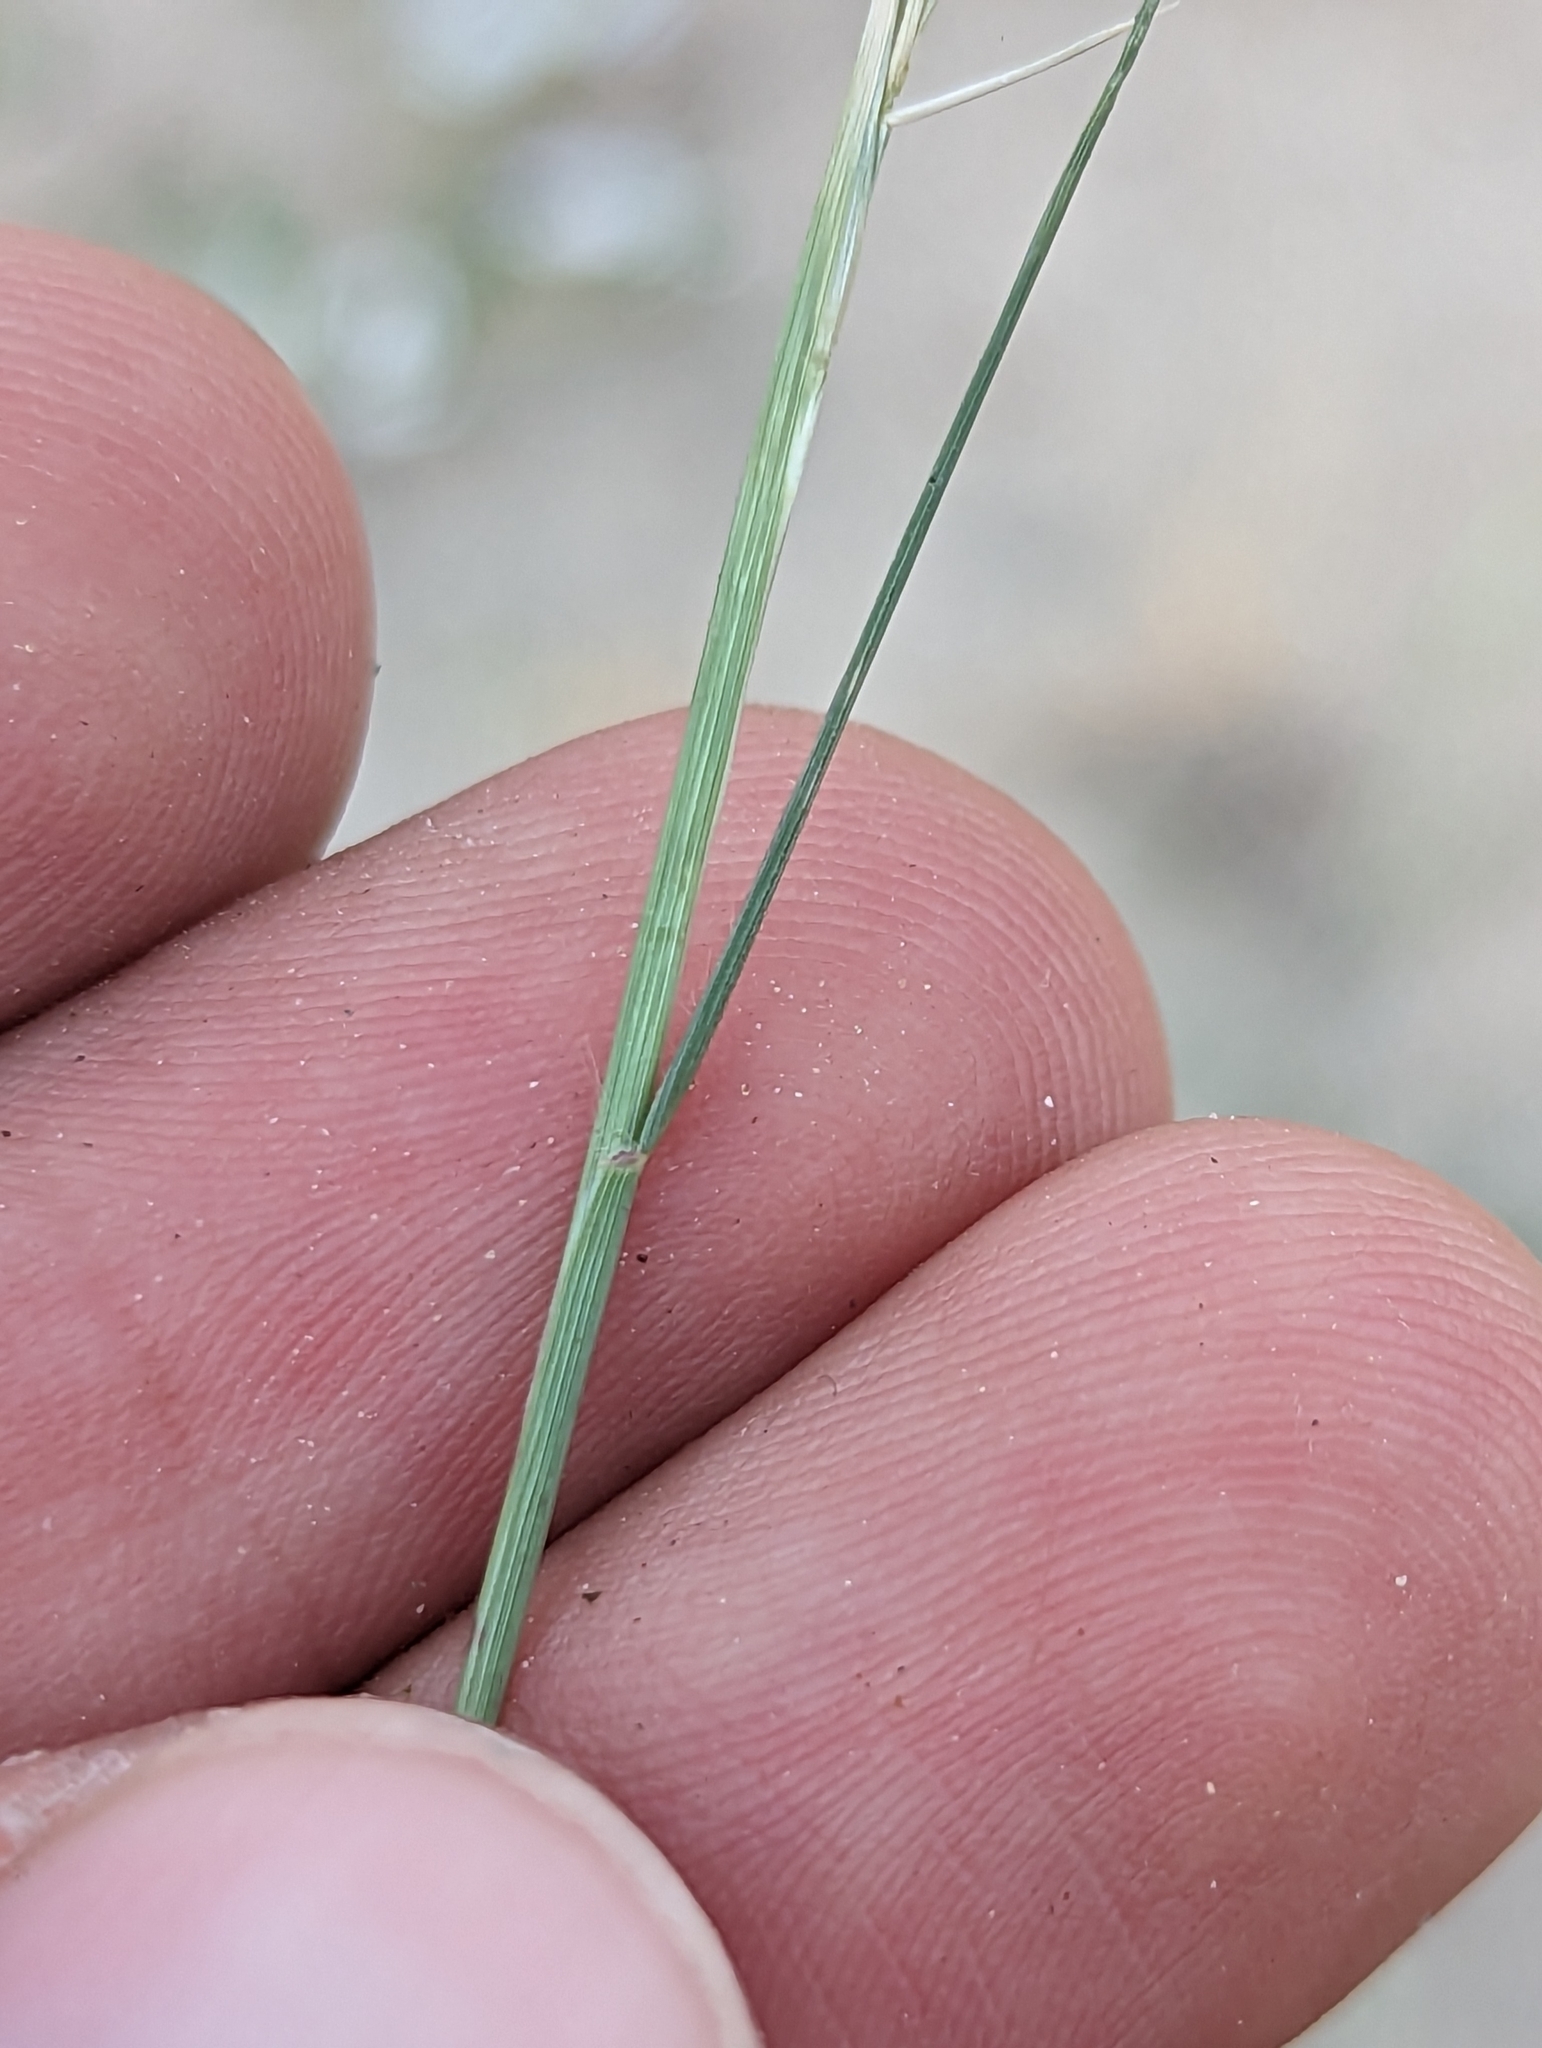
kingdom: Plantae
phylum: Tracheophyta
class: Liliopsida
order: Poales
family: Poaceae
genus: Bouteloua
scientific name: Bouteloua aristidoides
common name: Needle grama
